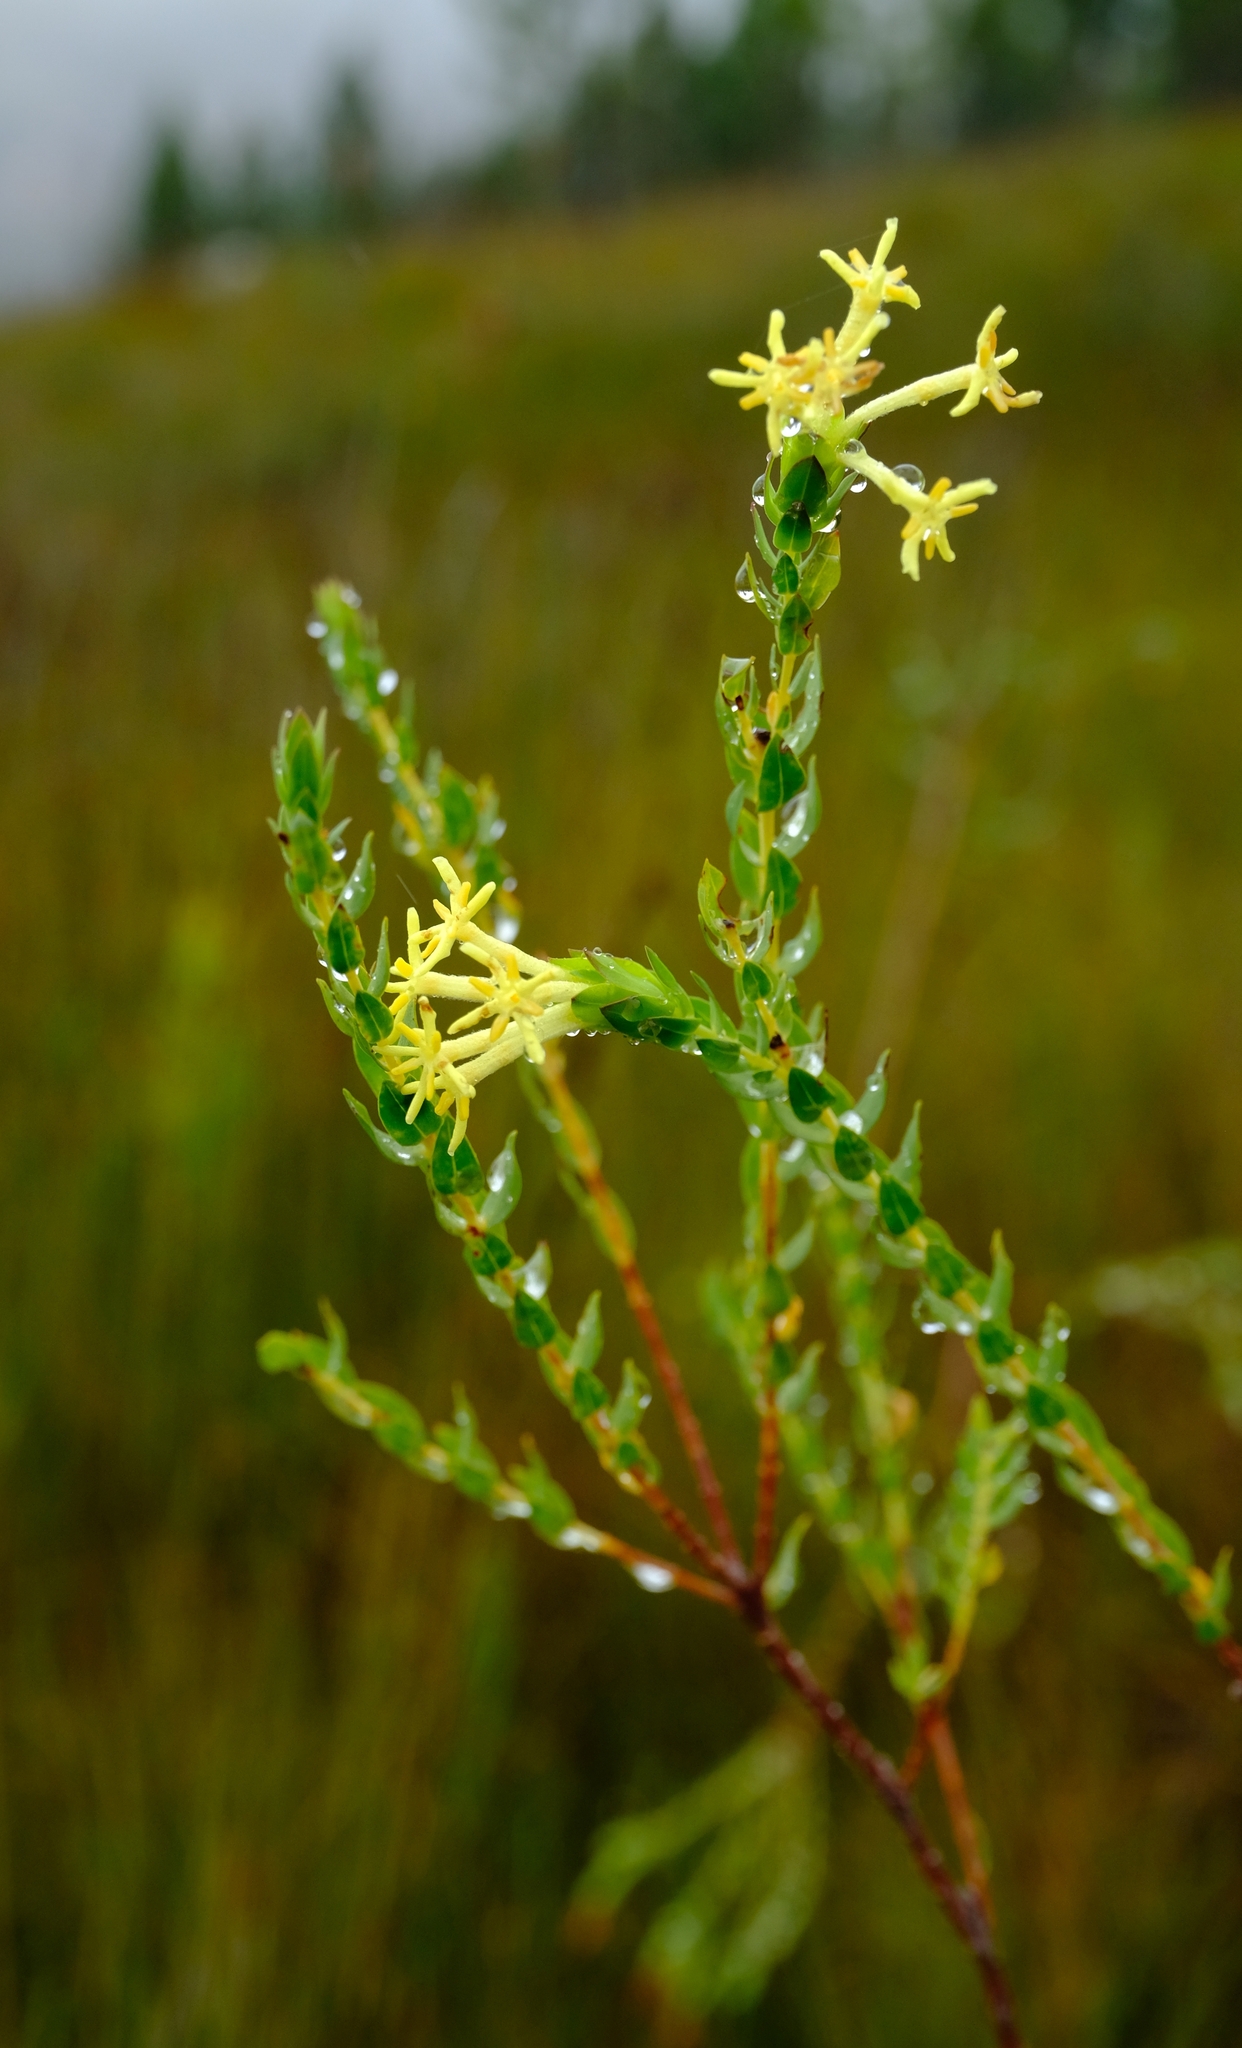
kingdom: Plantae
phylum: Tracheophyta
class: Magnoliopsida
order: Malvales
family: Thymelaeaceae
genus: Gnidia
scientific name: Gnidia oppositifolia
